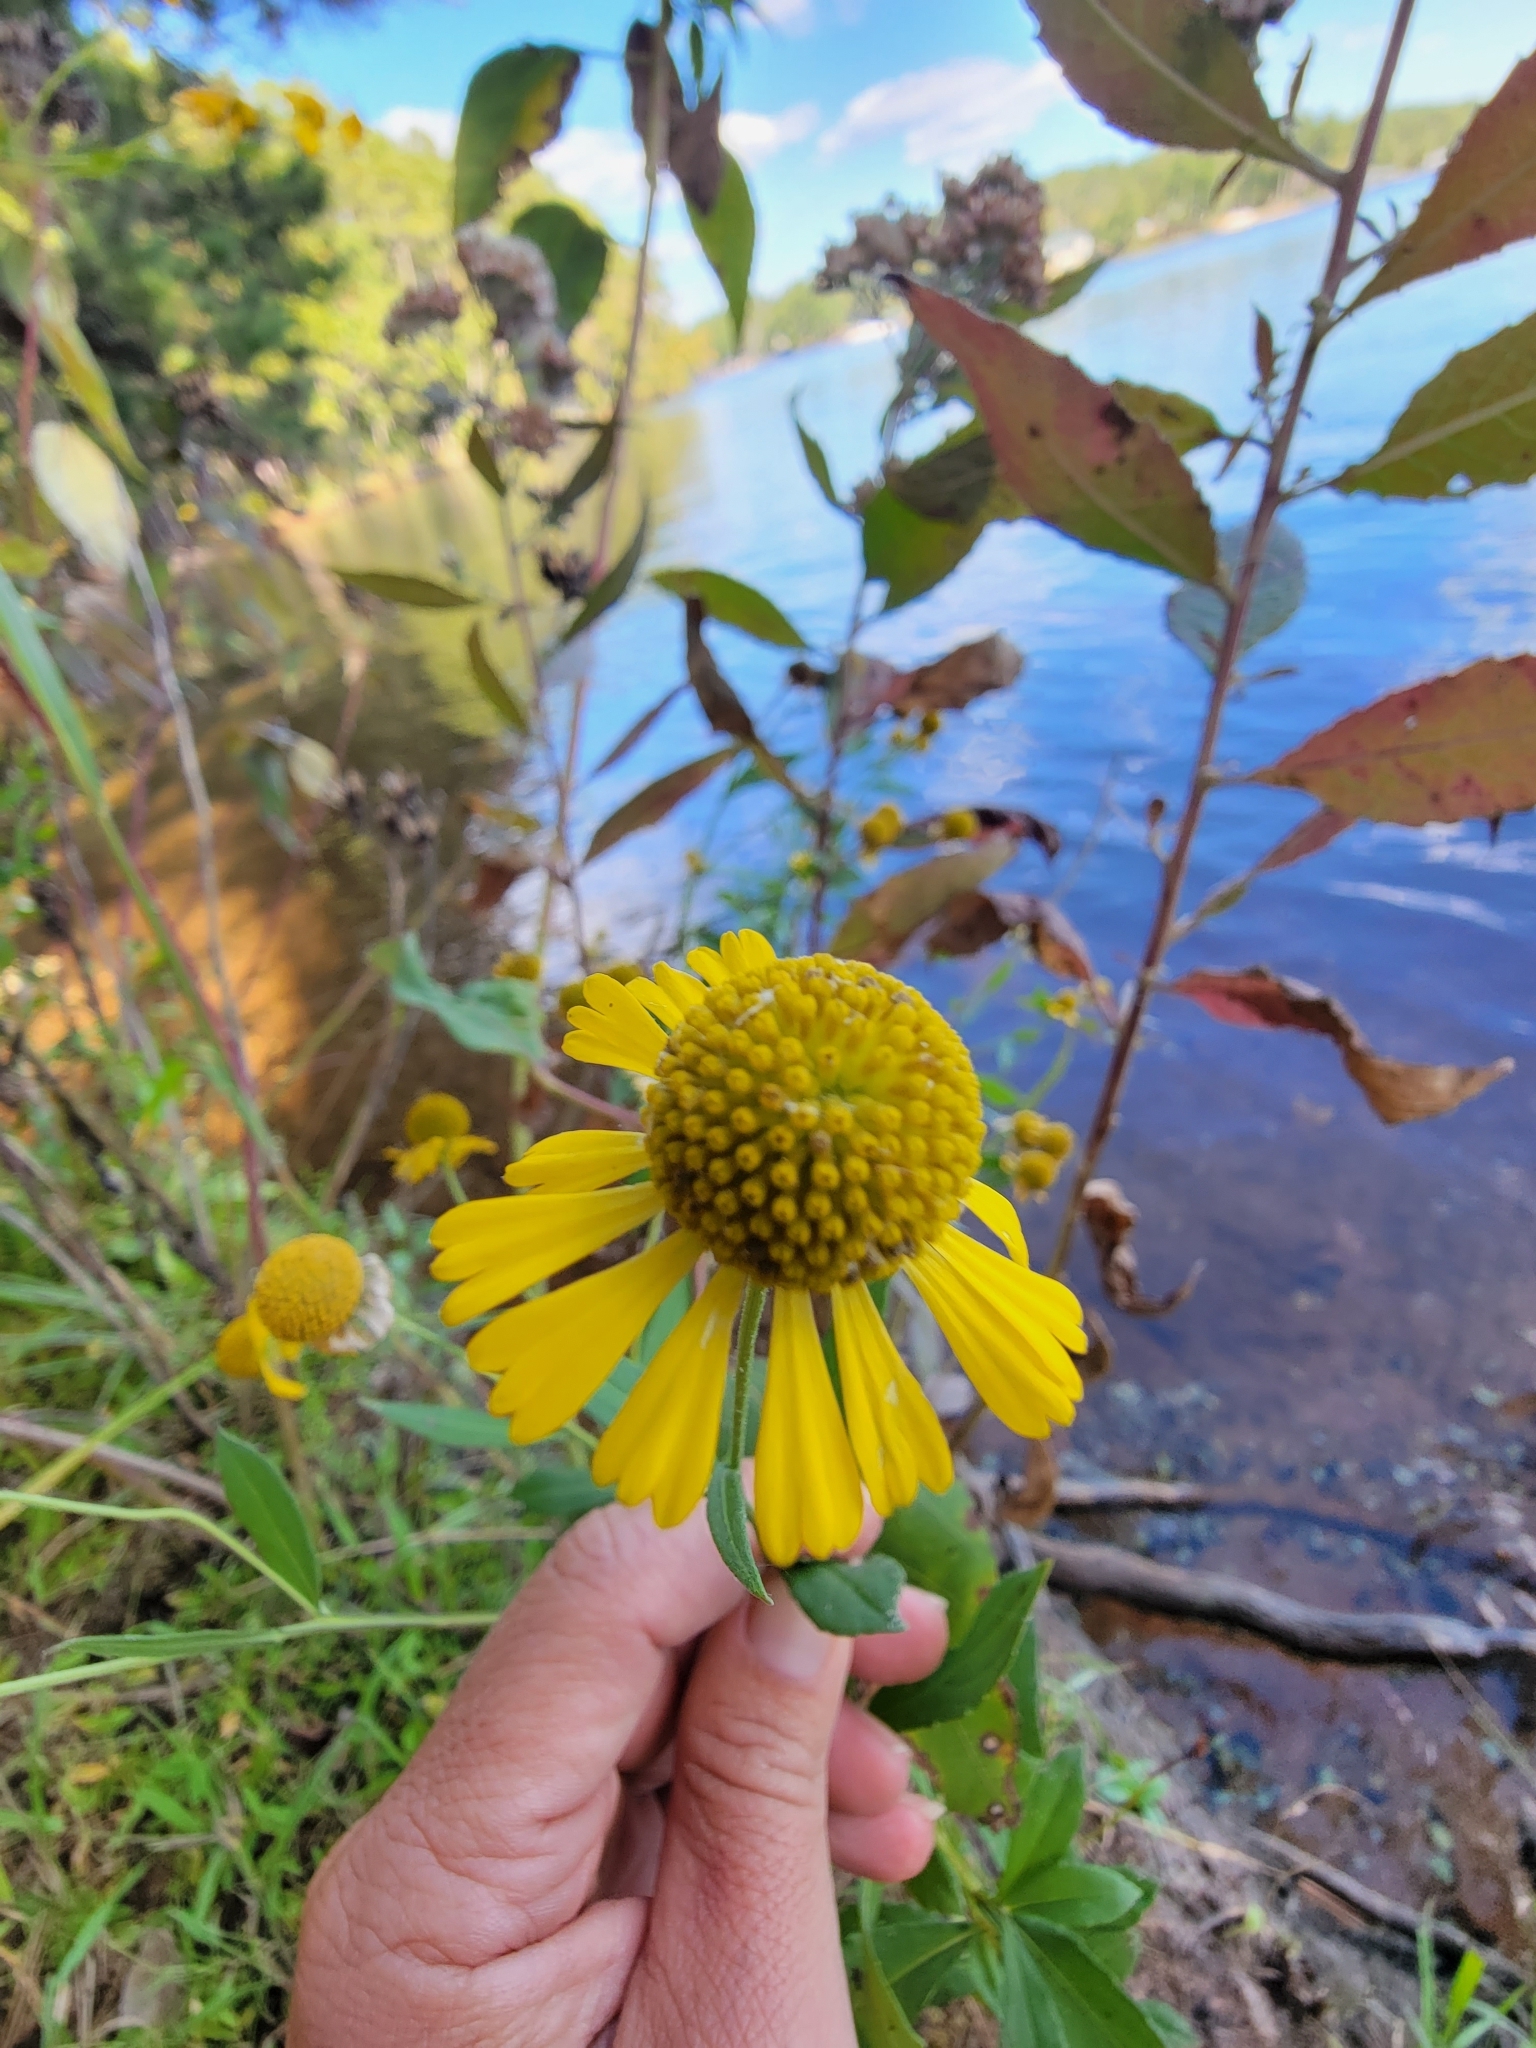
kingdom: Plantae
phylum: Tracheophyta
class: Magnoliopsida
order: Asterales
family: Asteraceae
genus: Helenium
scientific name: Helenium autumnale
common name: Sneezeweed
